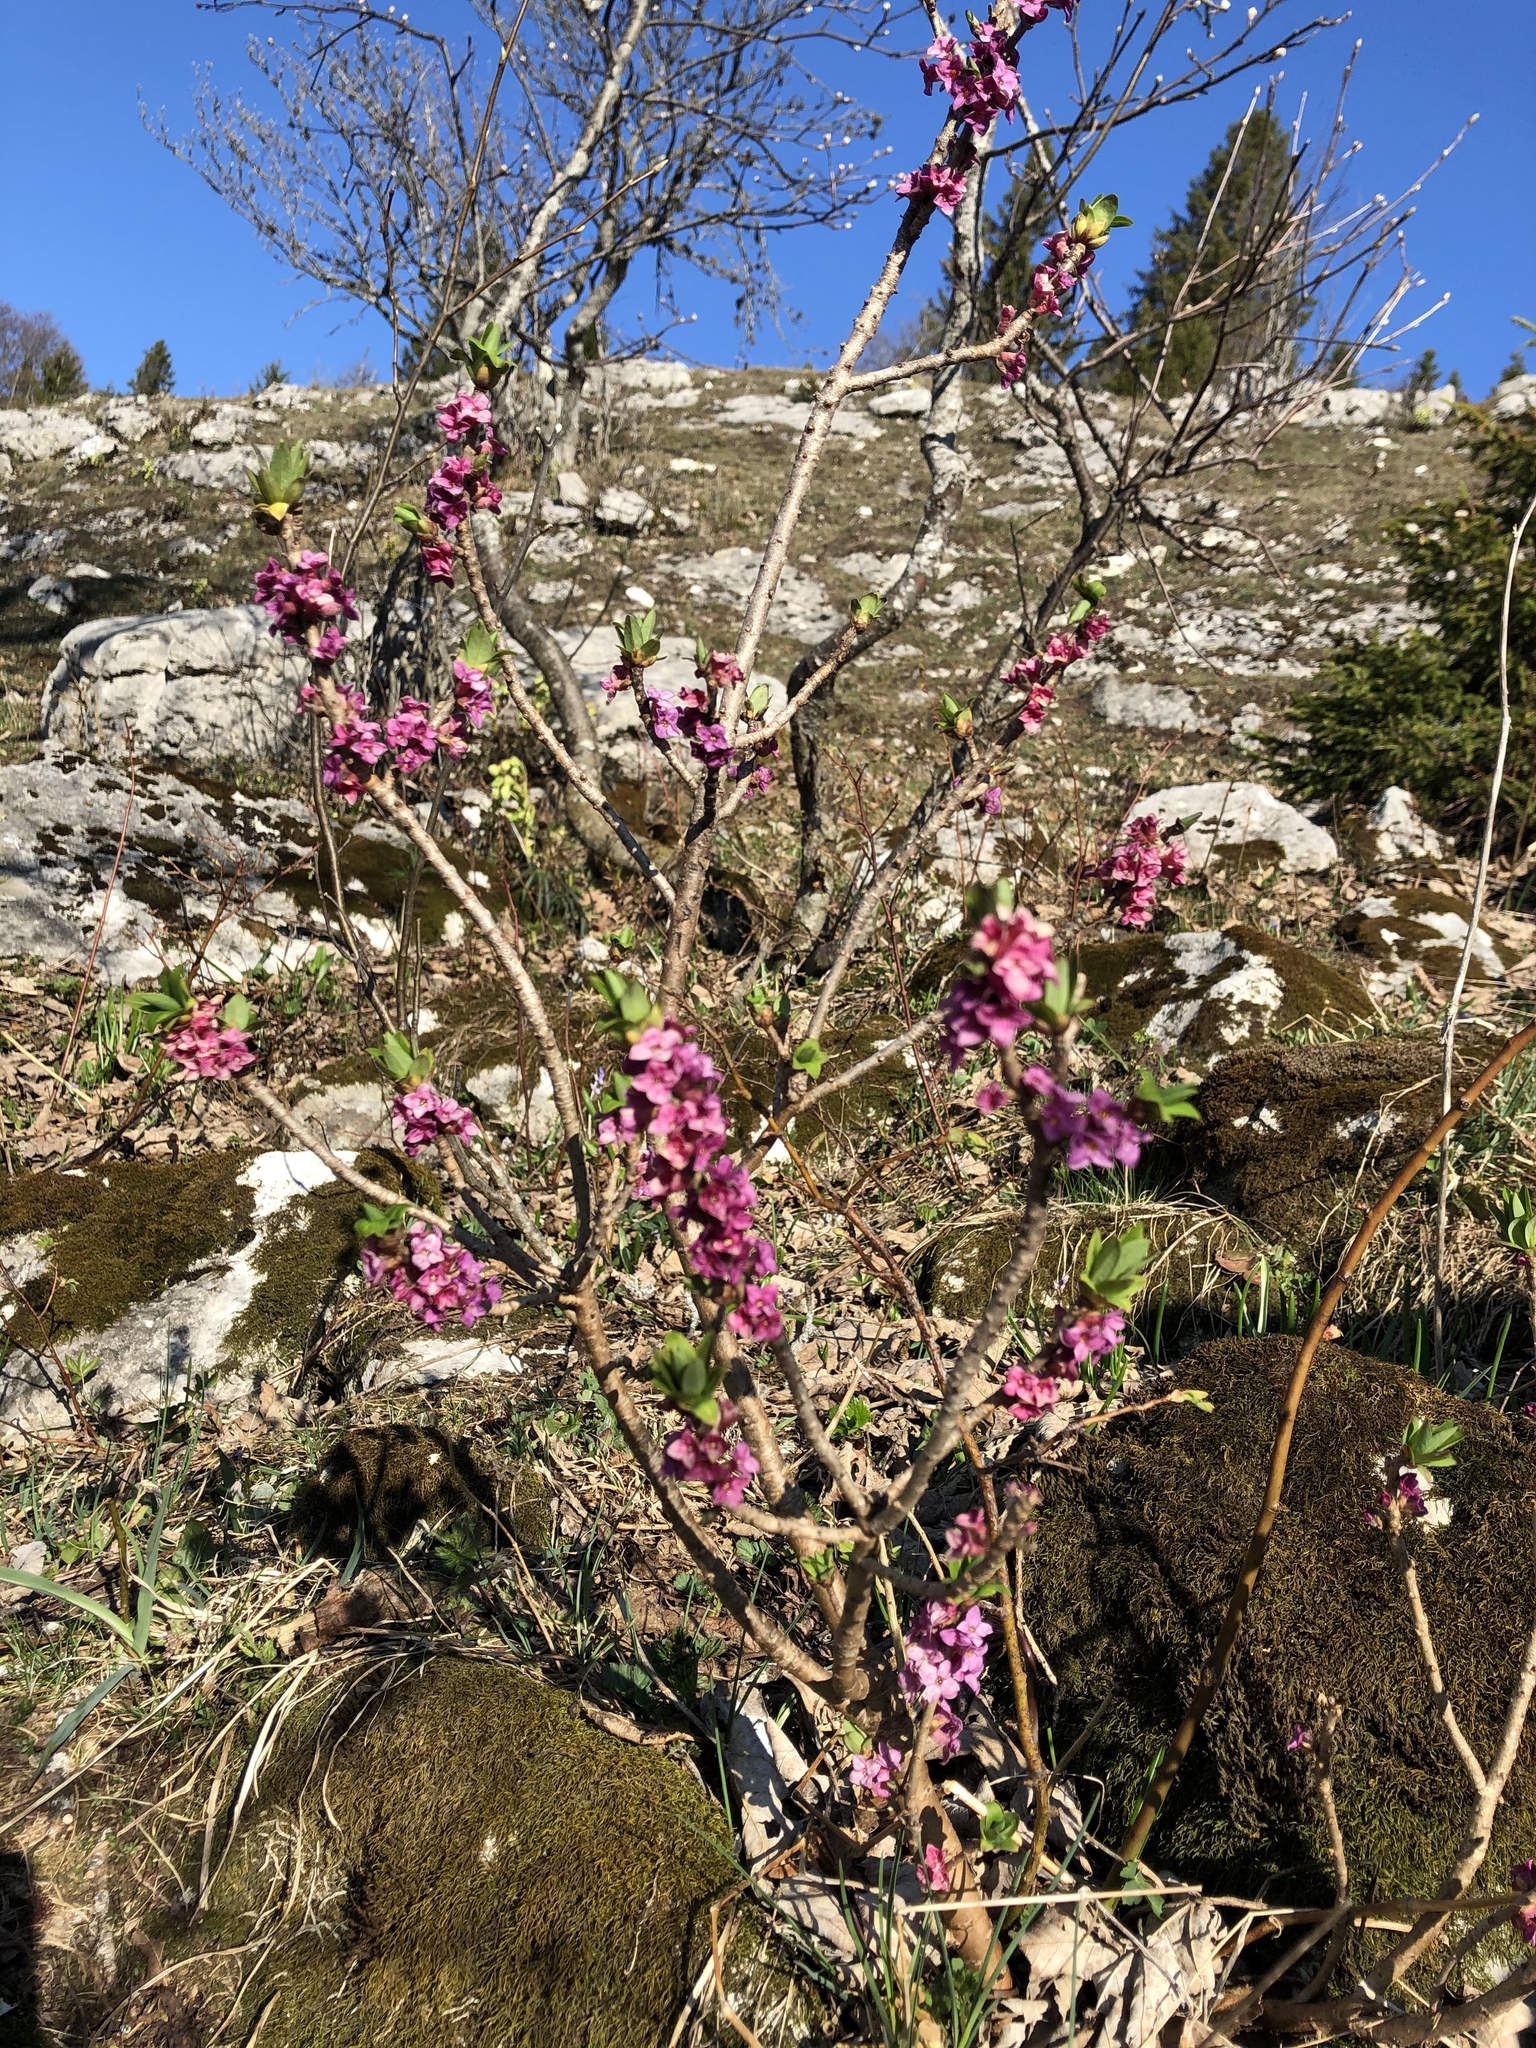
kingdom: Plantae
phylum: Tracheophyta
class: Magnoliopsida
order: Malvales
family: Thymelaeaceae
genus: Daphne
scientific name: Daphne mezereum
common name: Mezereon
